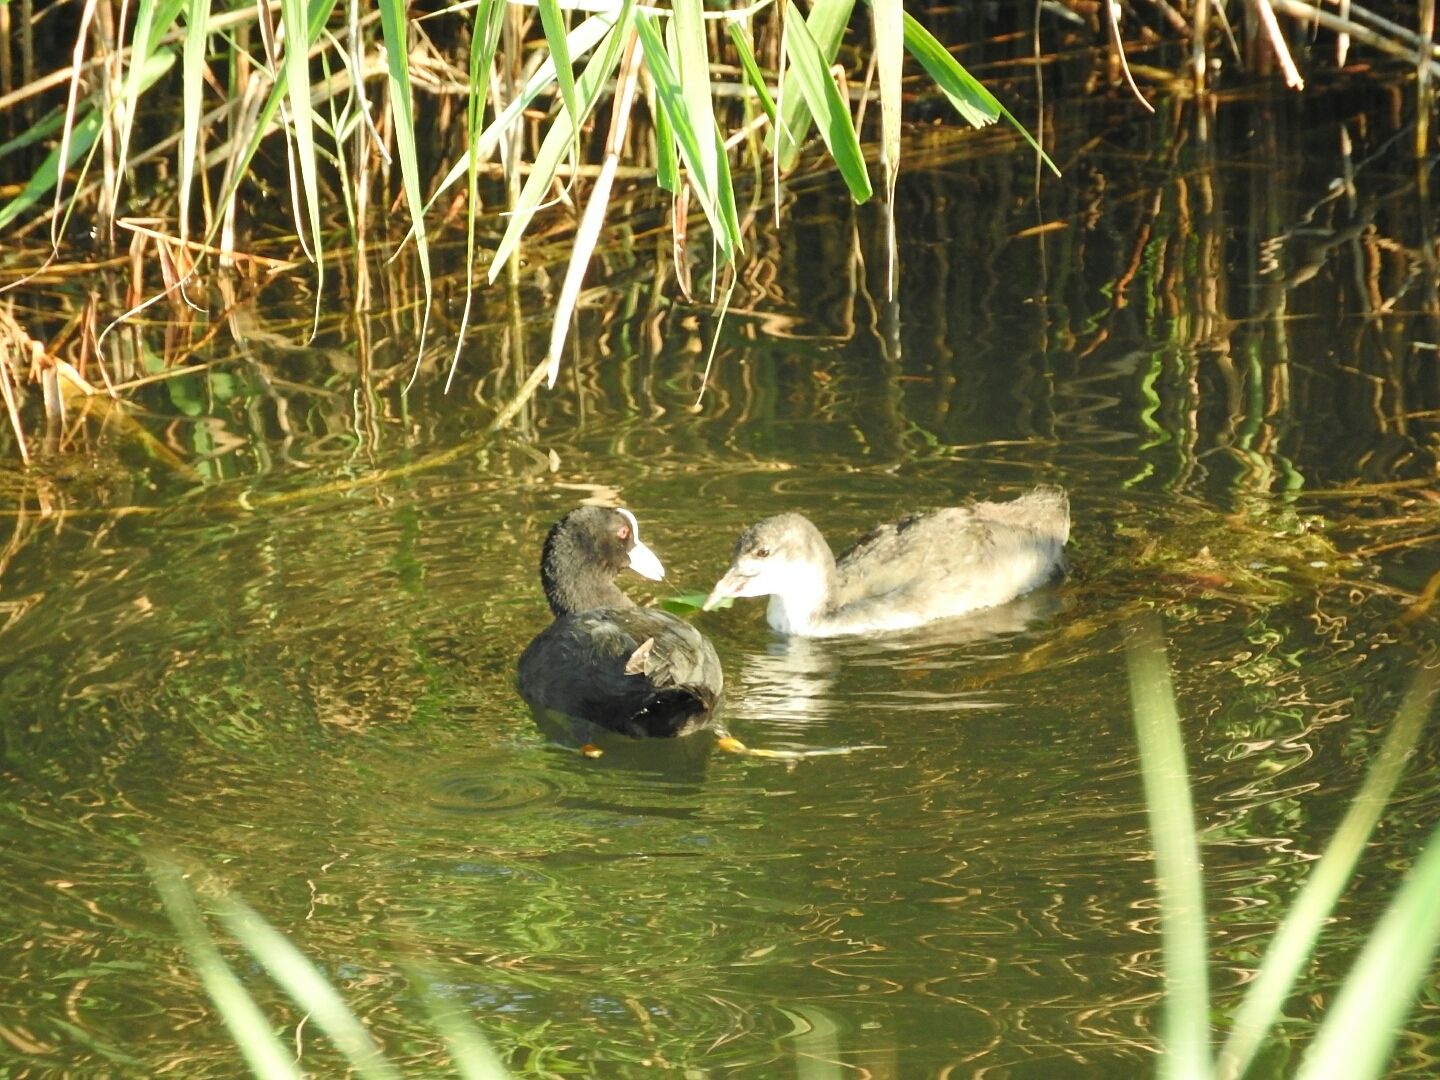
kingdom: Animalia
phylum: Chordata
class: Aves
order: Gruiformes
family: Rallidae
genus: Fulica
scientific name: Fulica atra
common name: Eurasian coot
